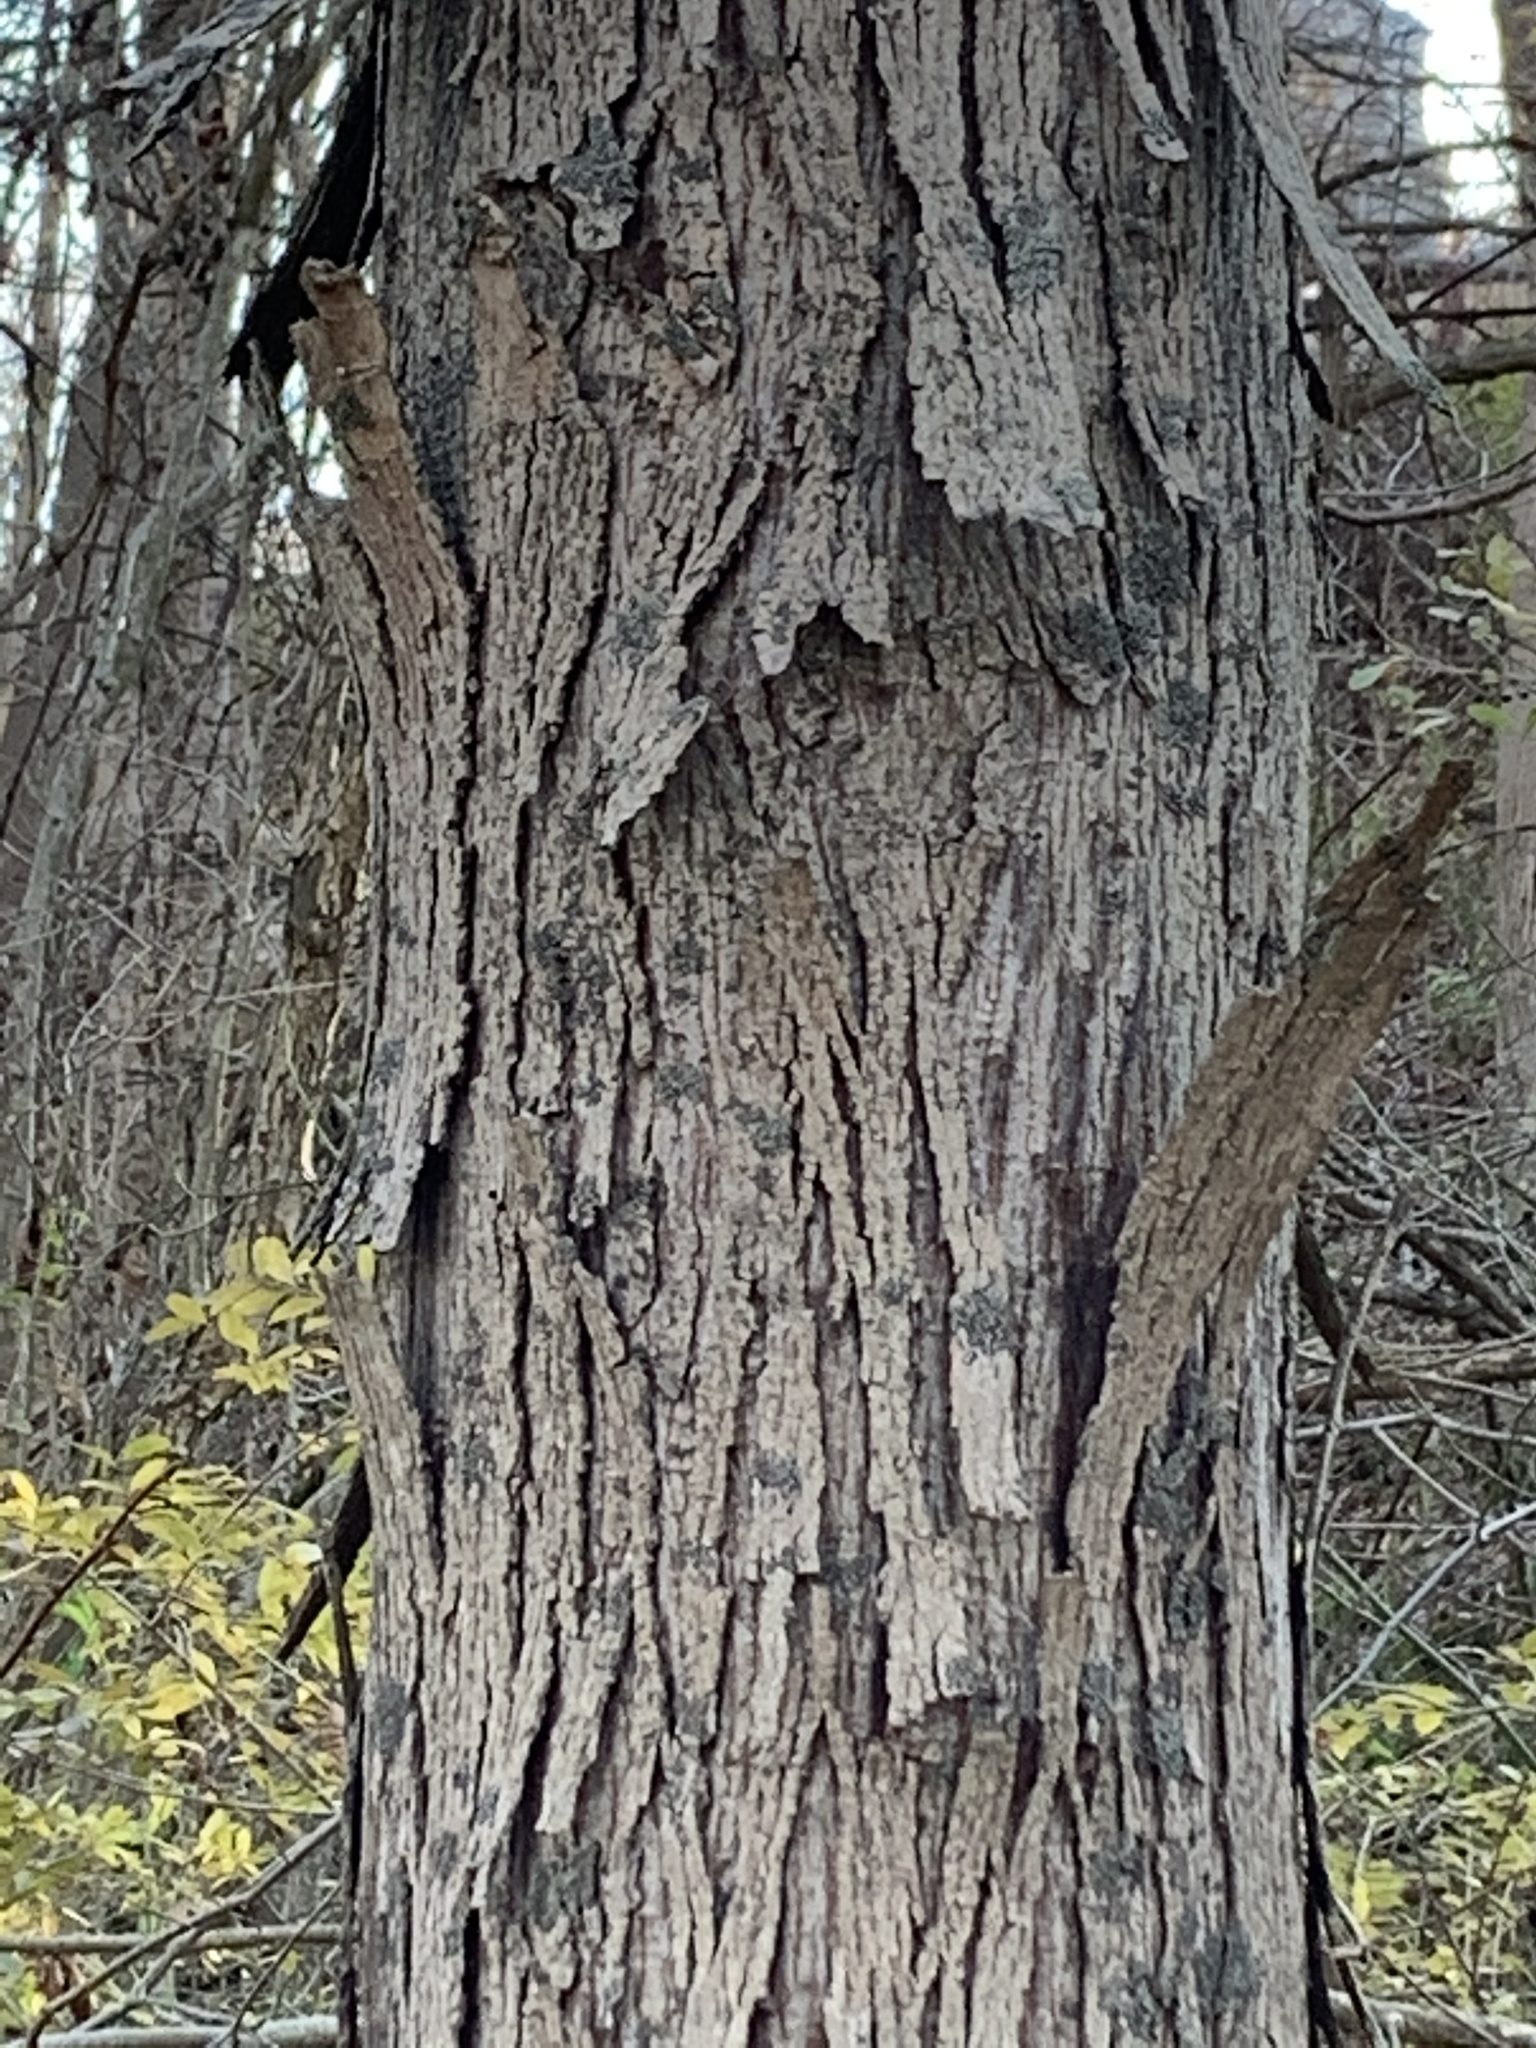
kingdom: Plantae
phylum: Tracheophyta
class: Magnoliopsida
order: Fagales
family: Juglandaceae
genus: Carya
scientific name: Carya ovata
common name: Shagbark hickory
